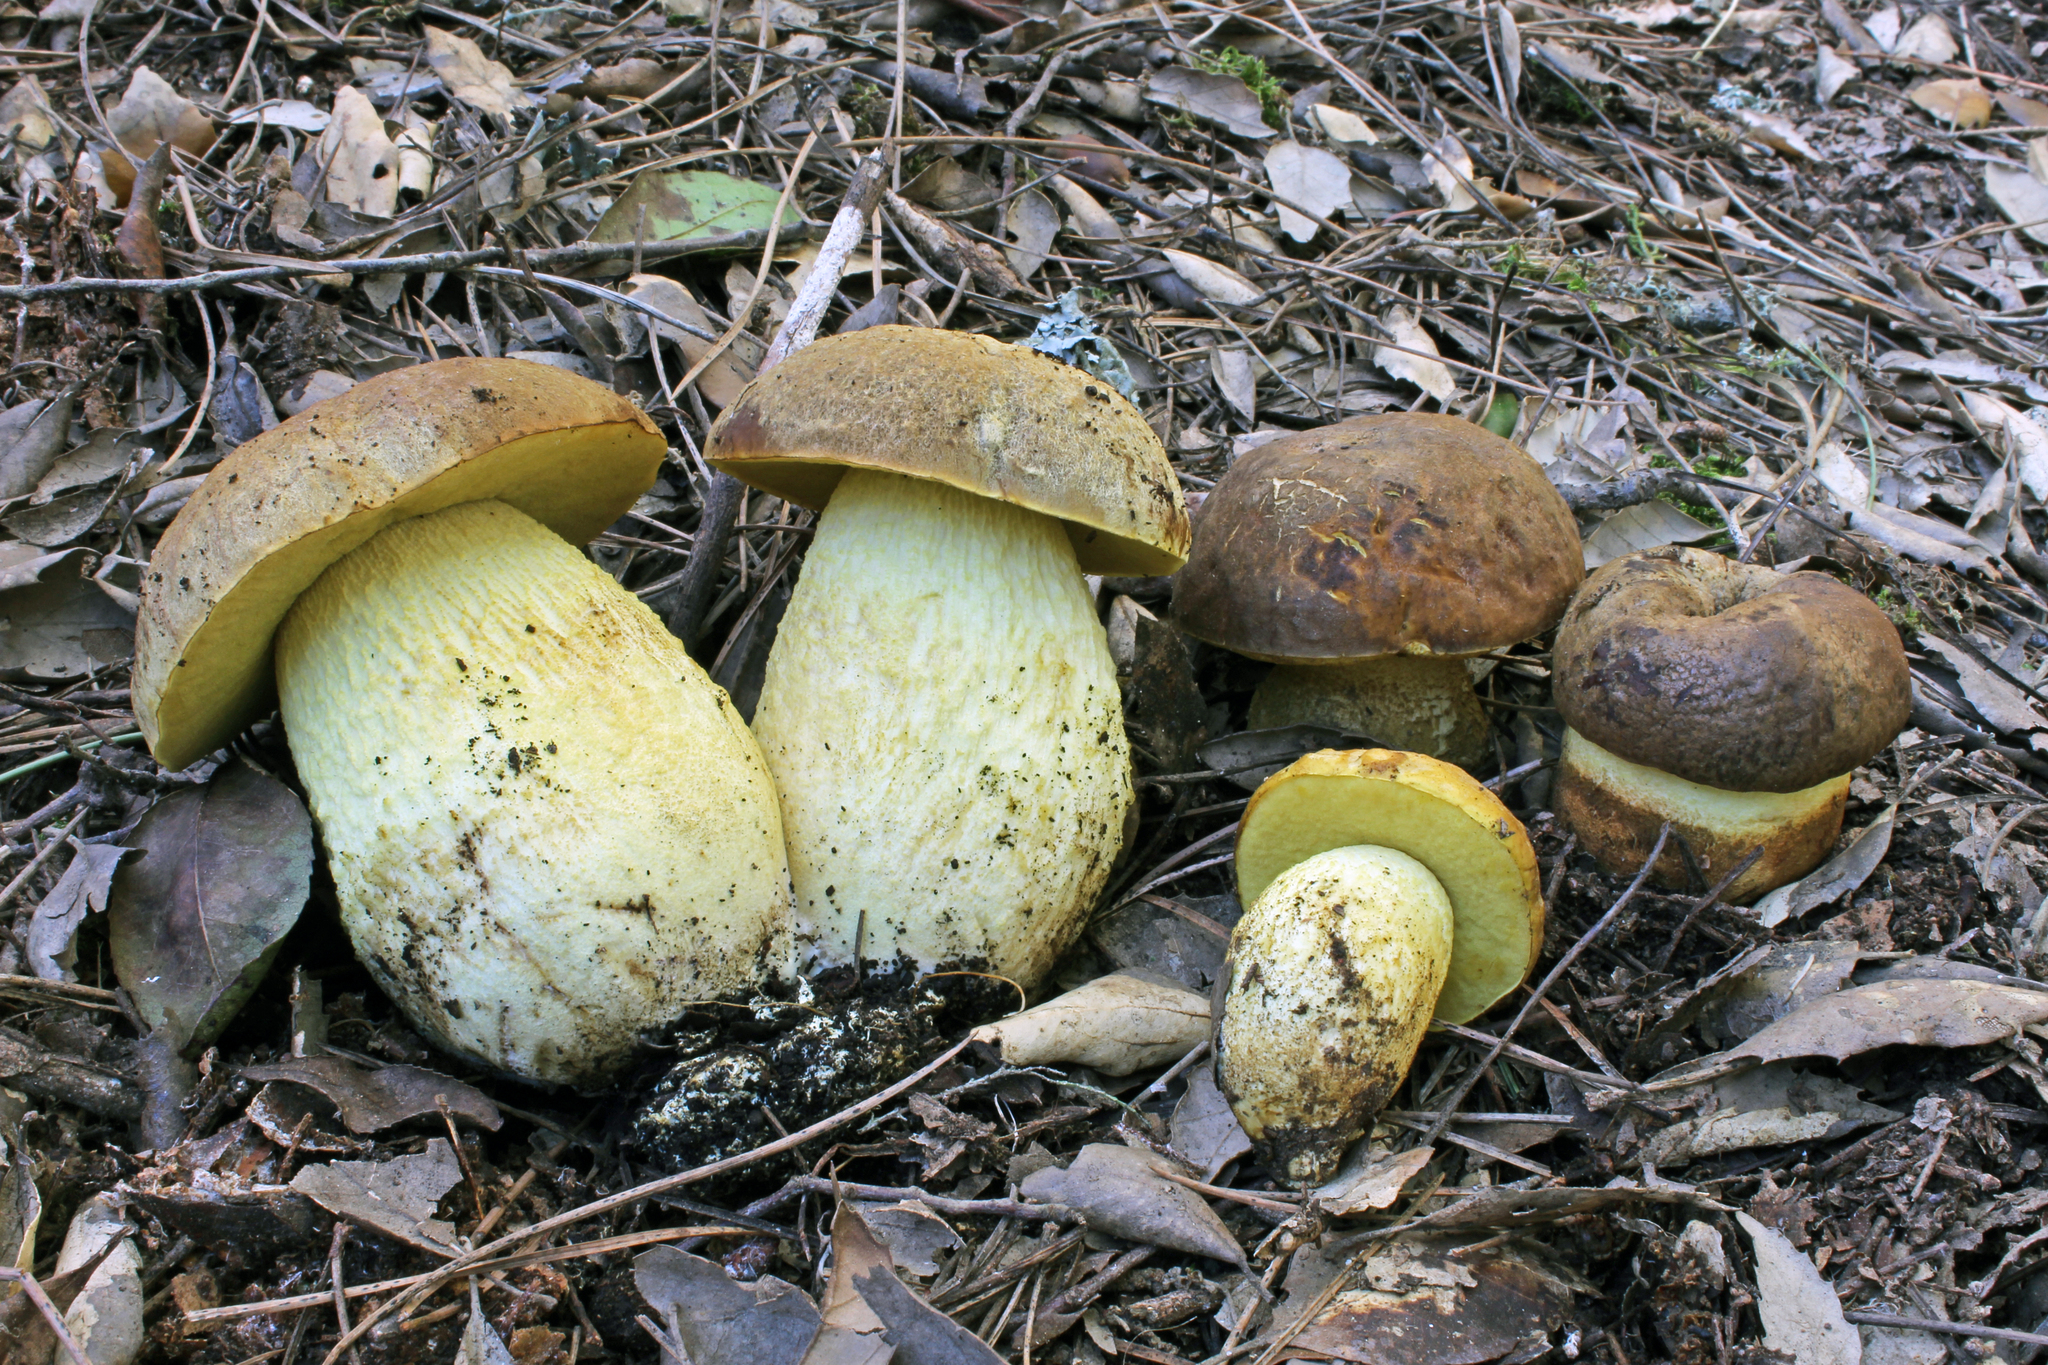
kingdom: Fungi
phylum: Basidiomycota
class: Agaricomycetes
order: Boletales
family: Boletaceae
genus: Leccinellum
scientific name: Leccinellum lepidum
